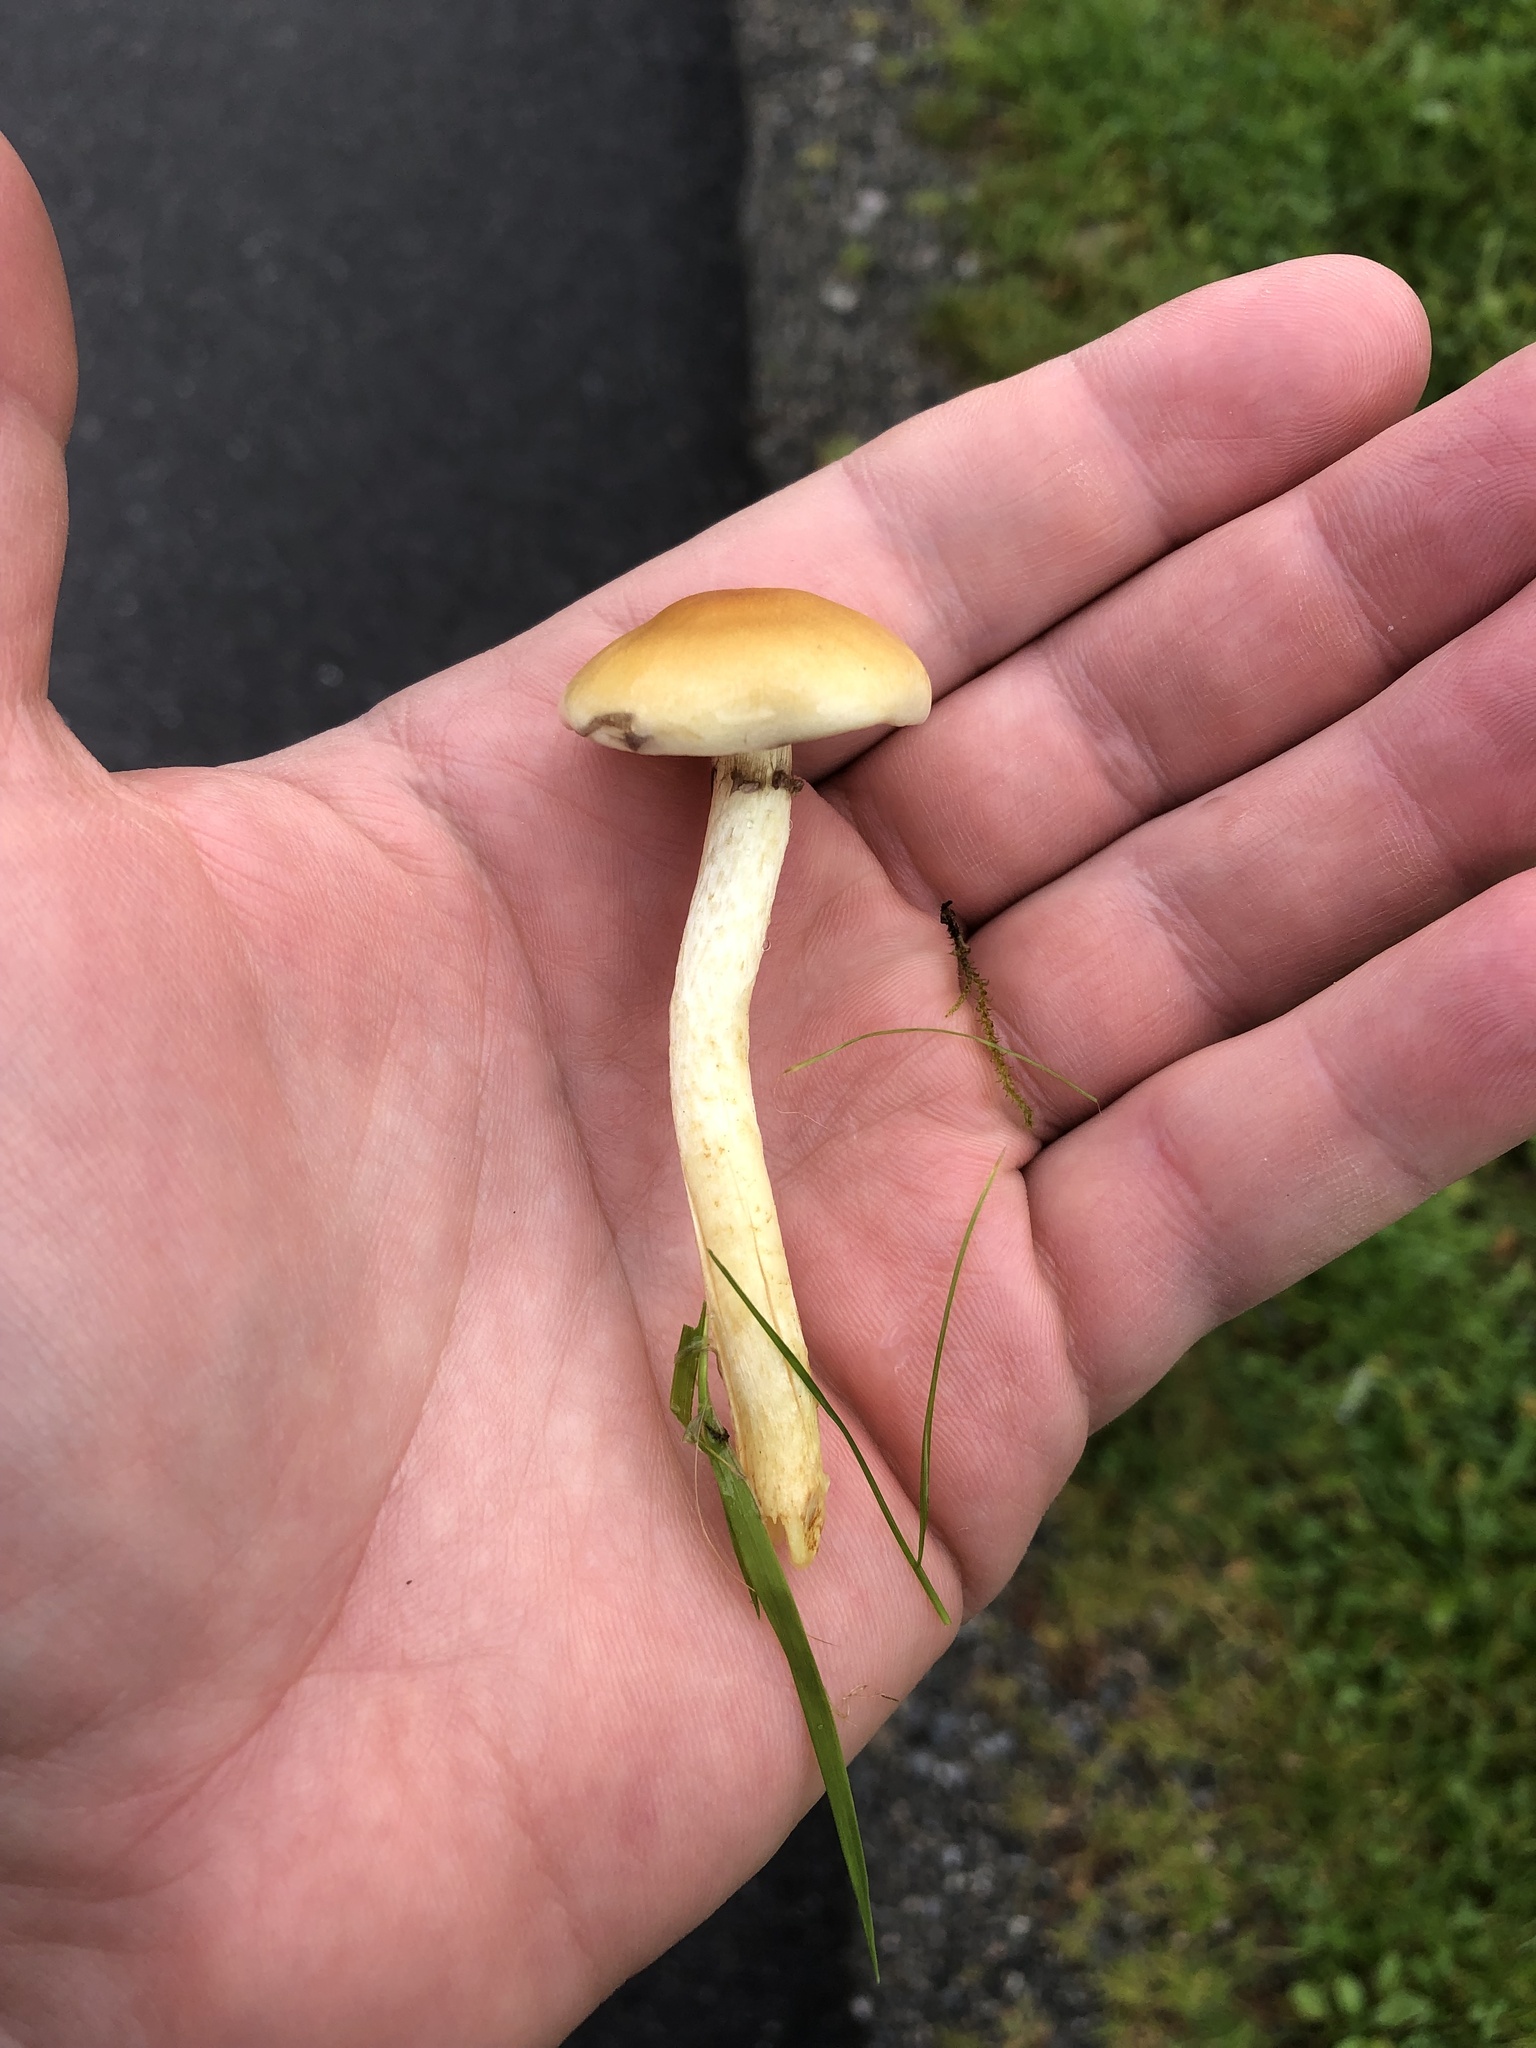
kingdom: Fungi
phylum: Basidiomycota
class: Agaricomycetes
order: Agaricales
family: Strophariaceae
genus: Hypholoma
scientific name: Hypholoma fasciculare
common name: Sulphur tuft
